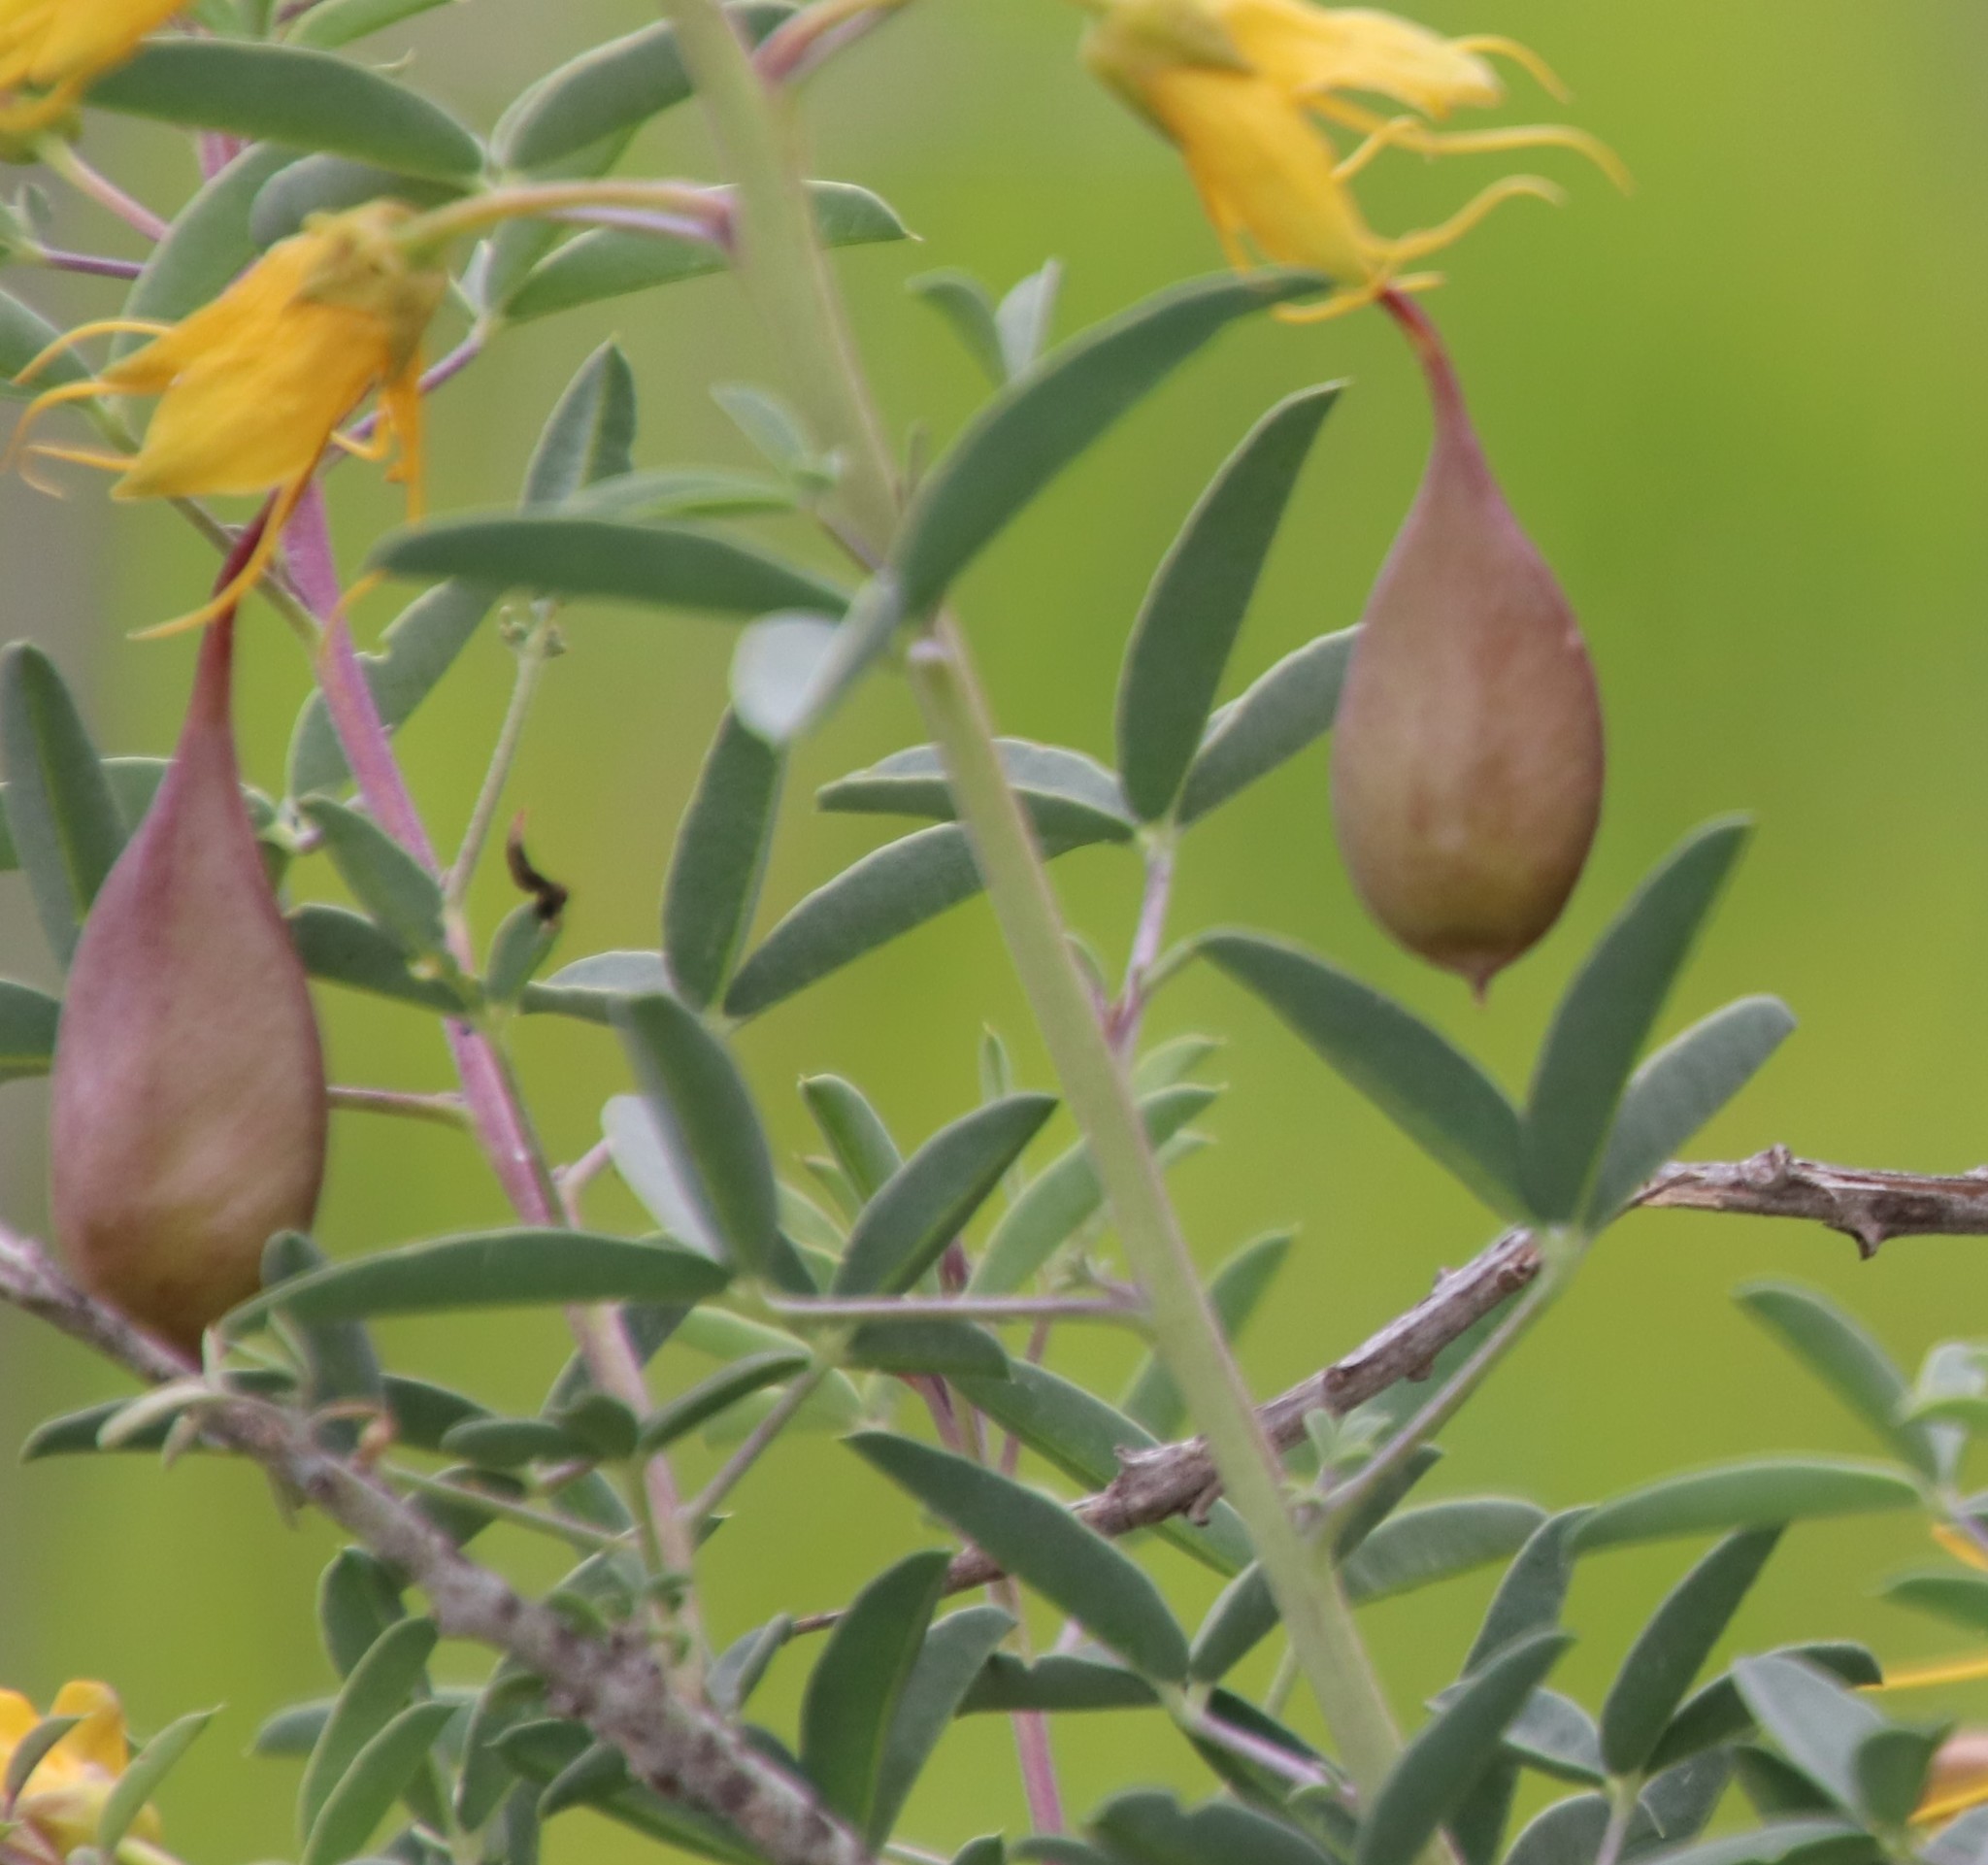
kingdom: Plantae
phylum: Tracheophyta
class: Magnoliopsida
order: Brassicales
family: Cleomaceae
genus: Cleomella
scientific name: Cleomella arborea
